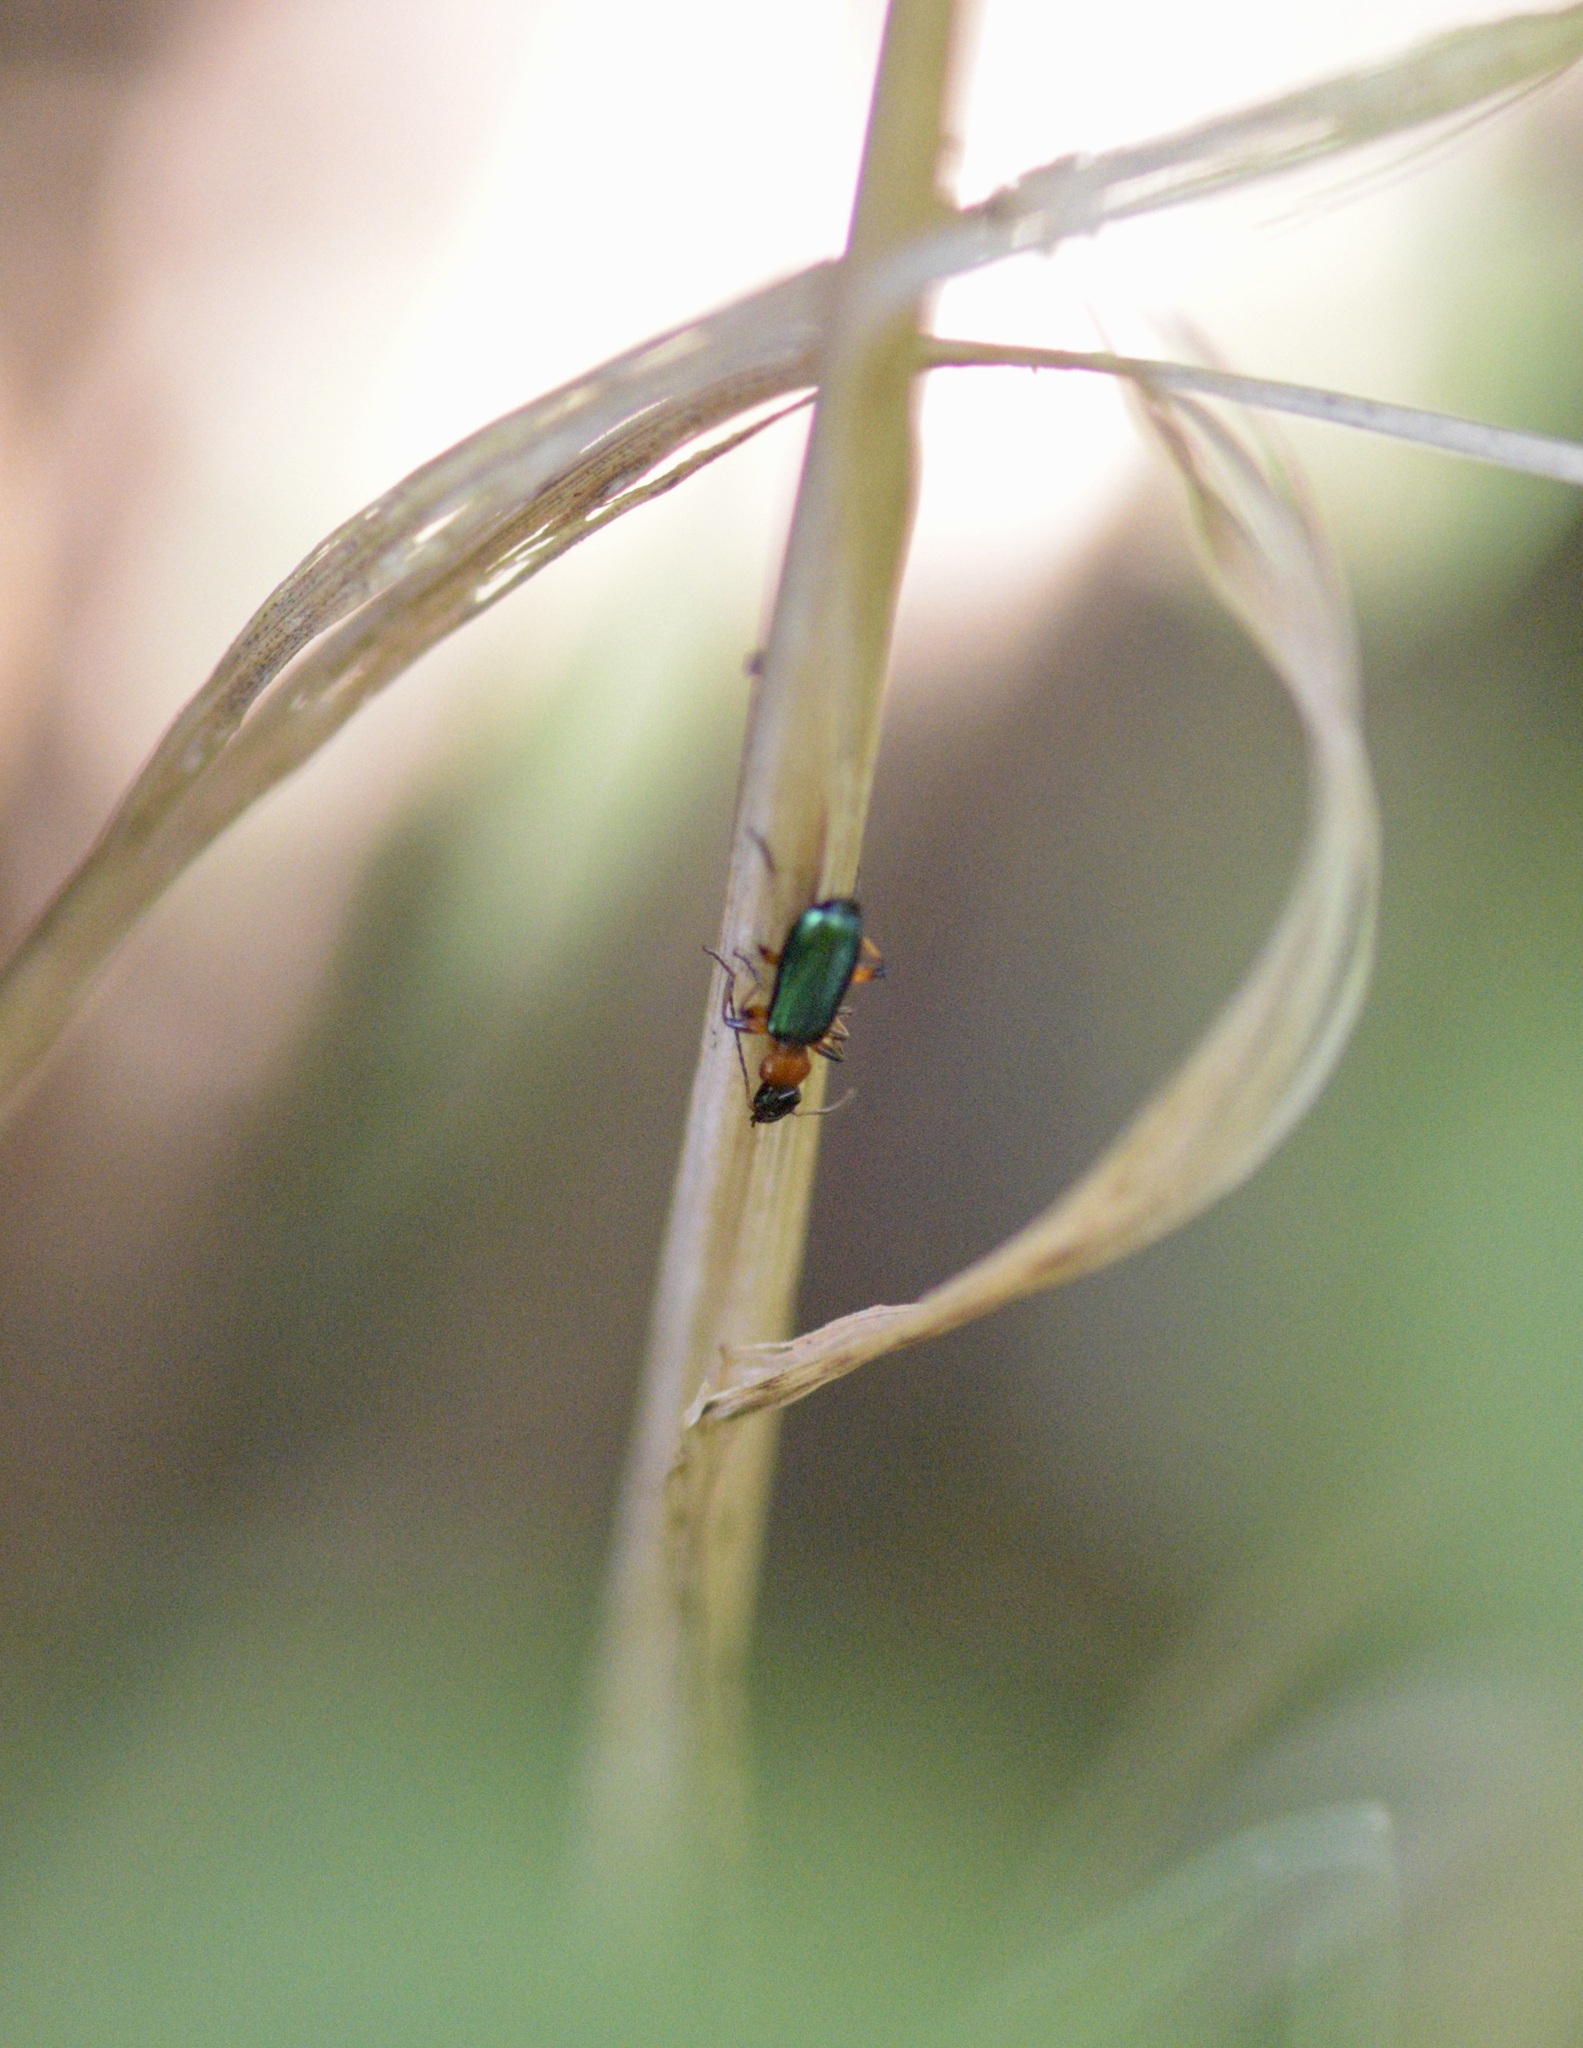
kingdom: Animalia
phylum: Arthropoda
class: Insecta
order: Coleoptera
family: Carabidae
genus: Calleida
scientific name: Calleida punctata
